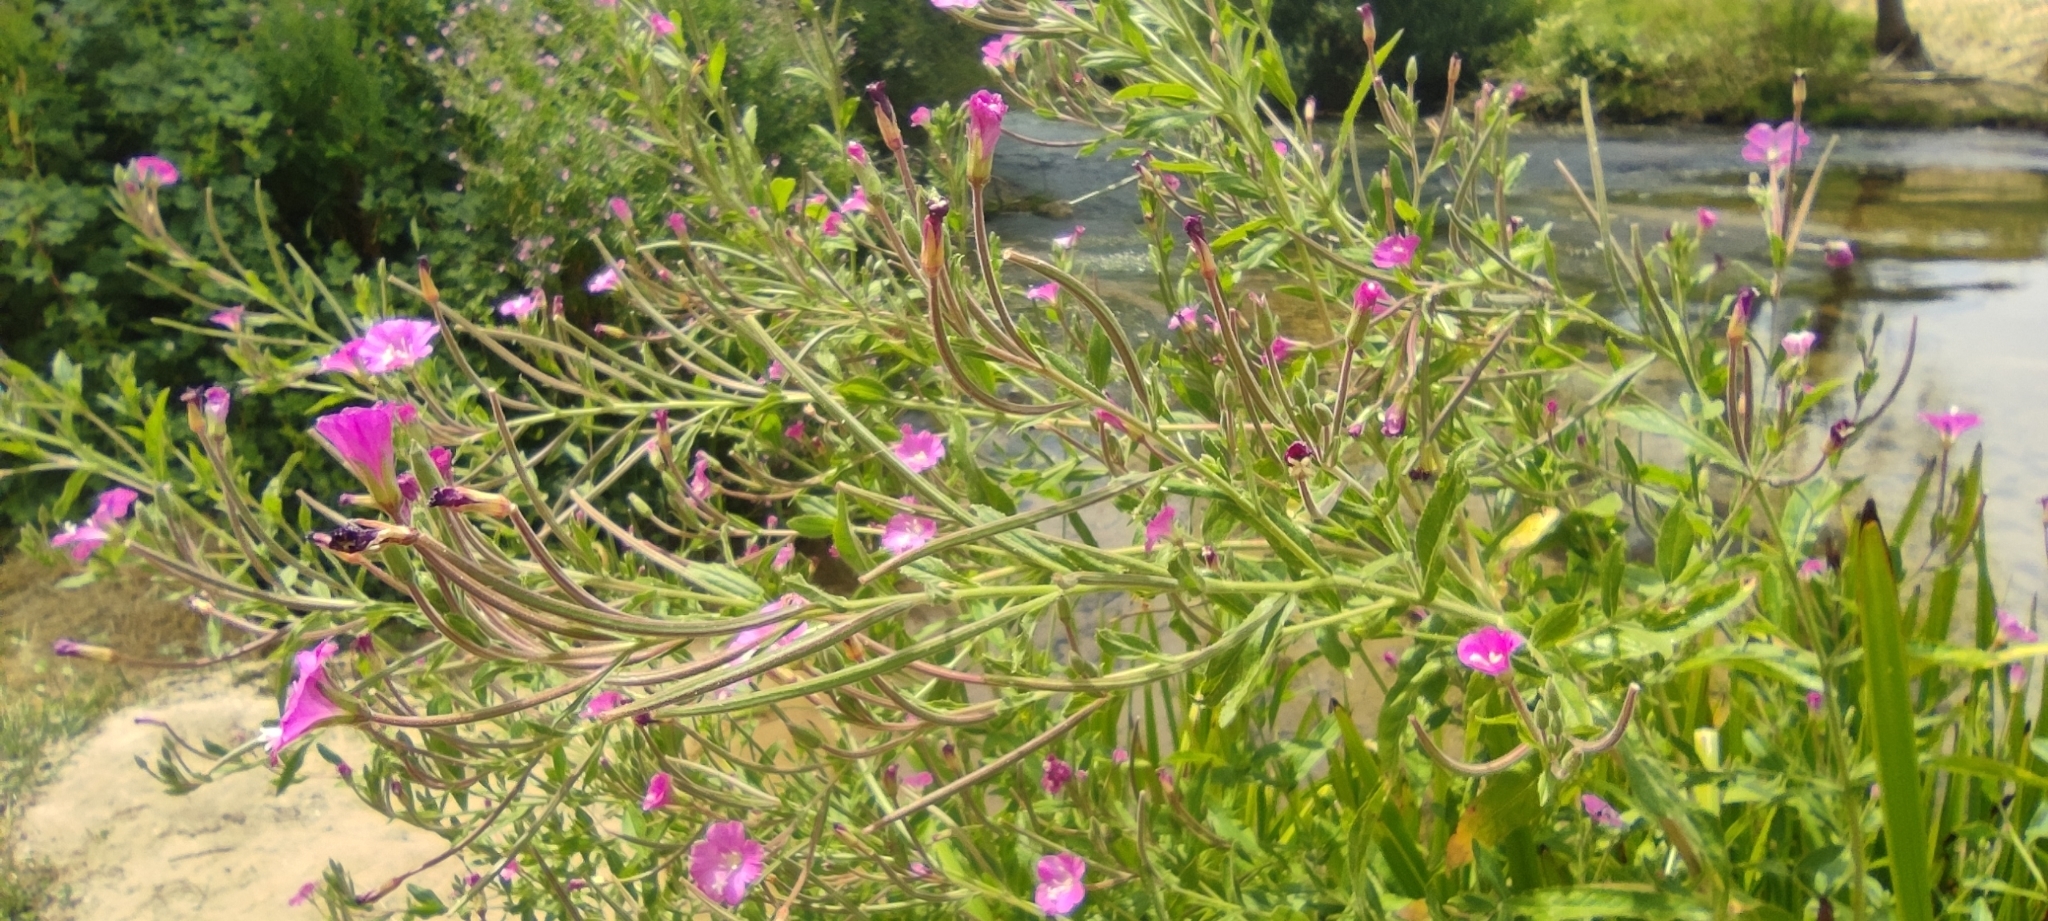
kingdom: Plantae
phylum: Tracheophyta
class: Magnoliopsida
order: Myrtales
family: Onagraceae
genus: Epilobium
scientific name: Epilobium hirsutum
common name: Great willowherb
